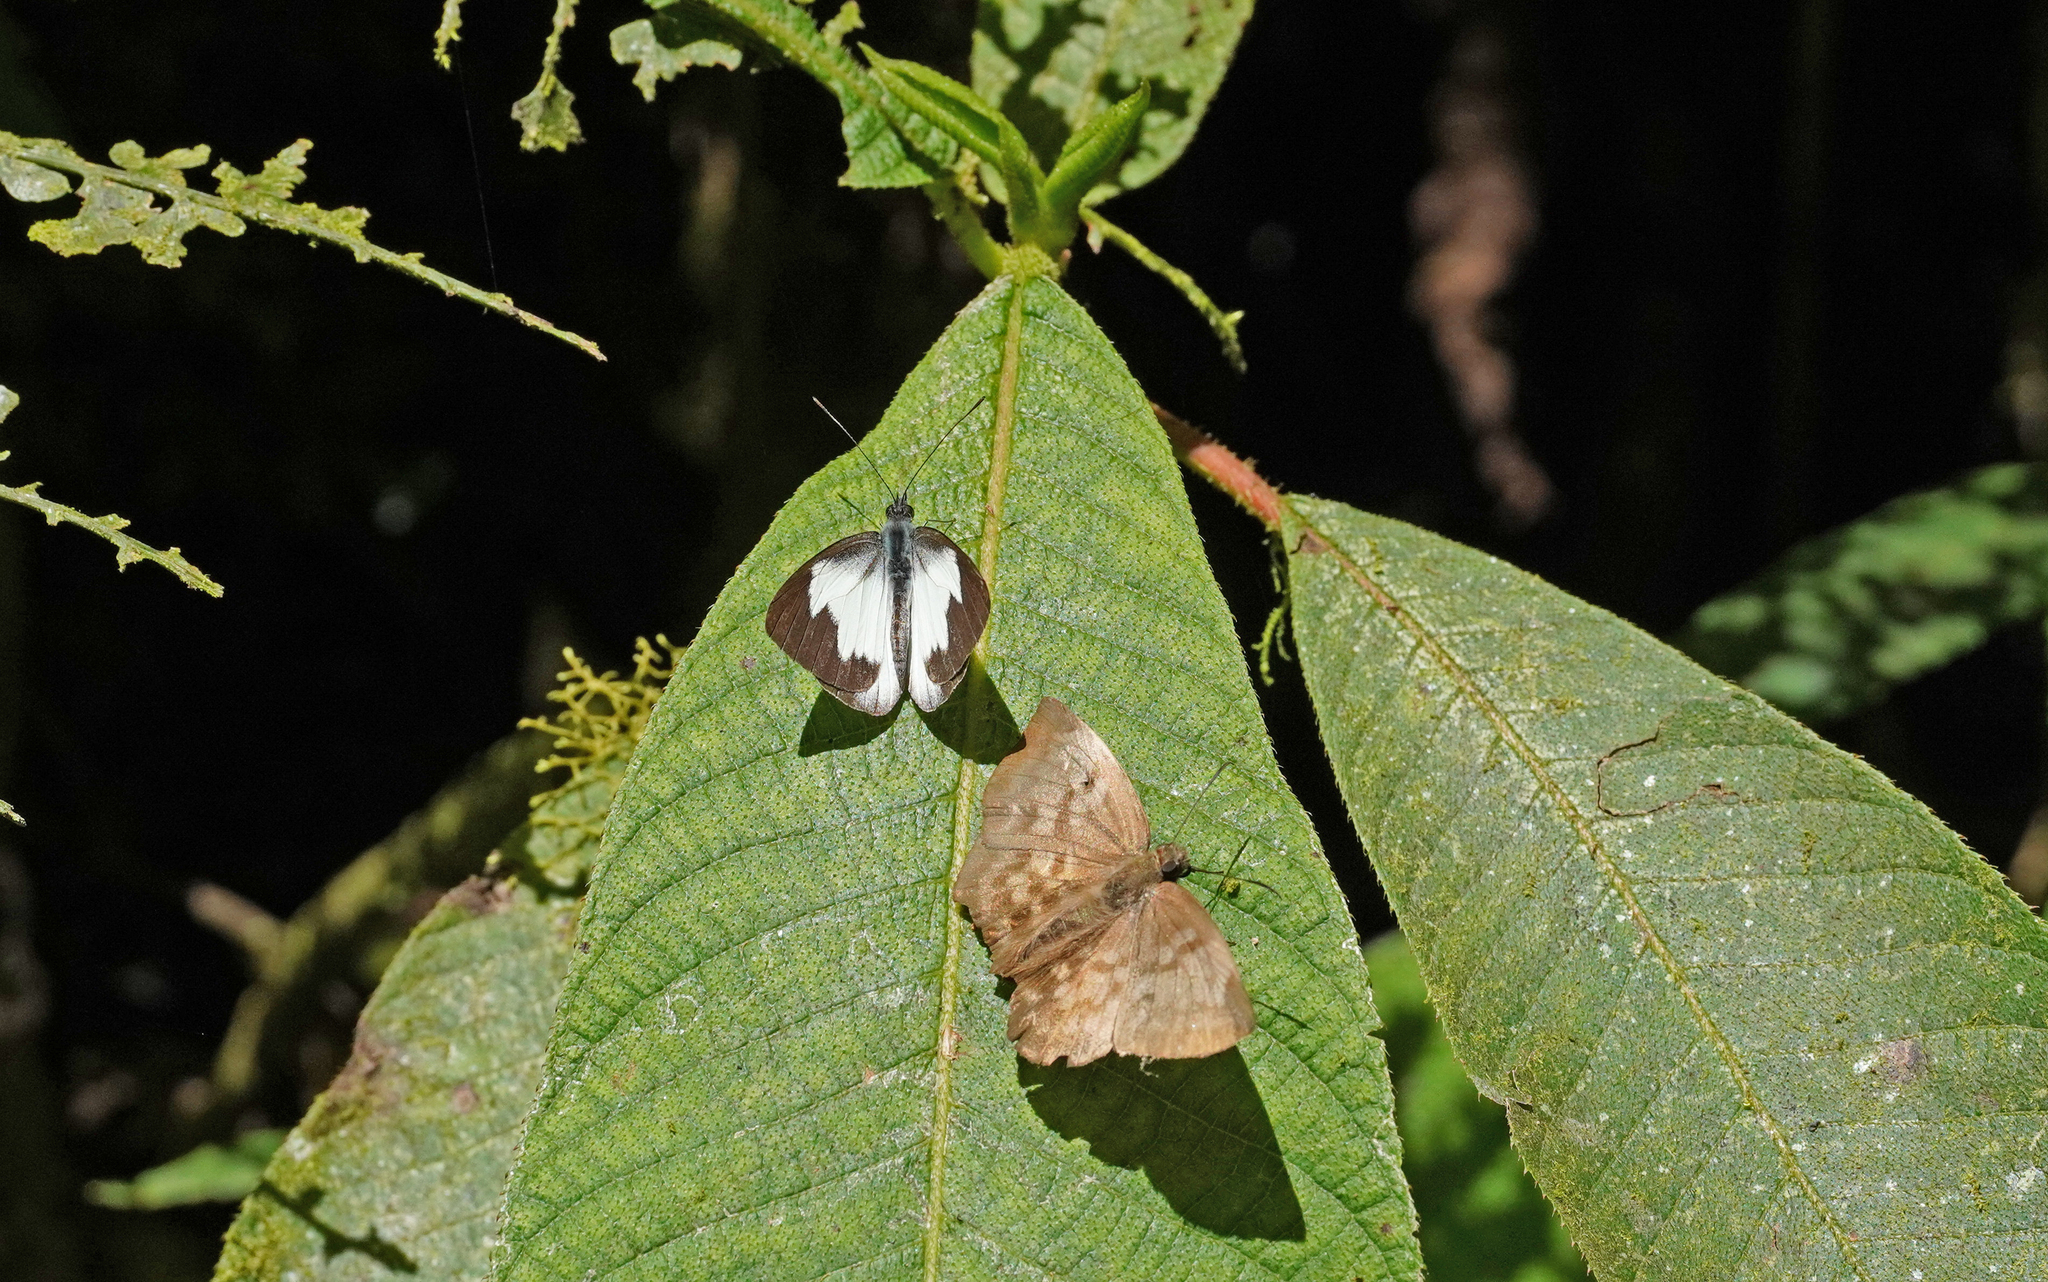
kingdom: Animalia
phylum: Arthropoda
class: Insecta
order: Lepidoptera
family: Pieridae
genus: Leptophobia
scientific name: Leptophobia penthica
